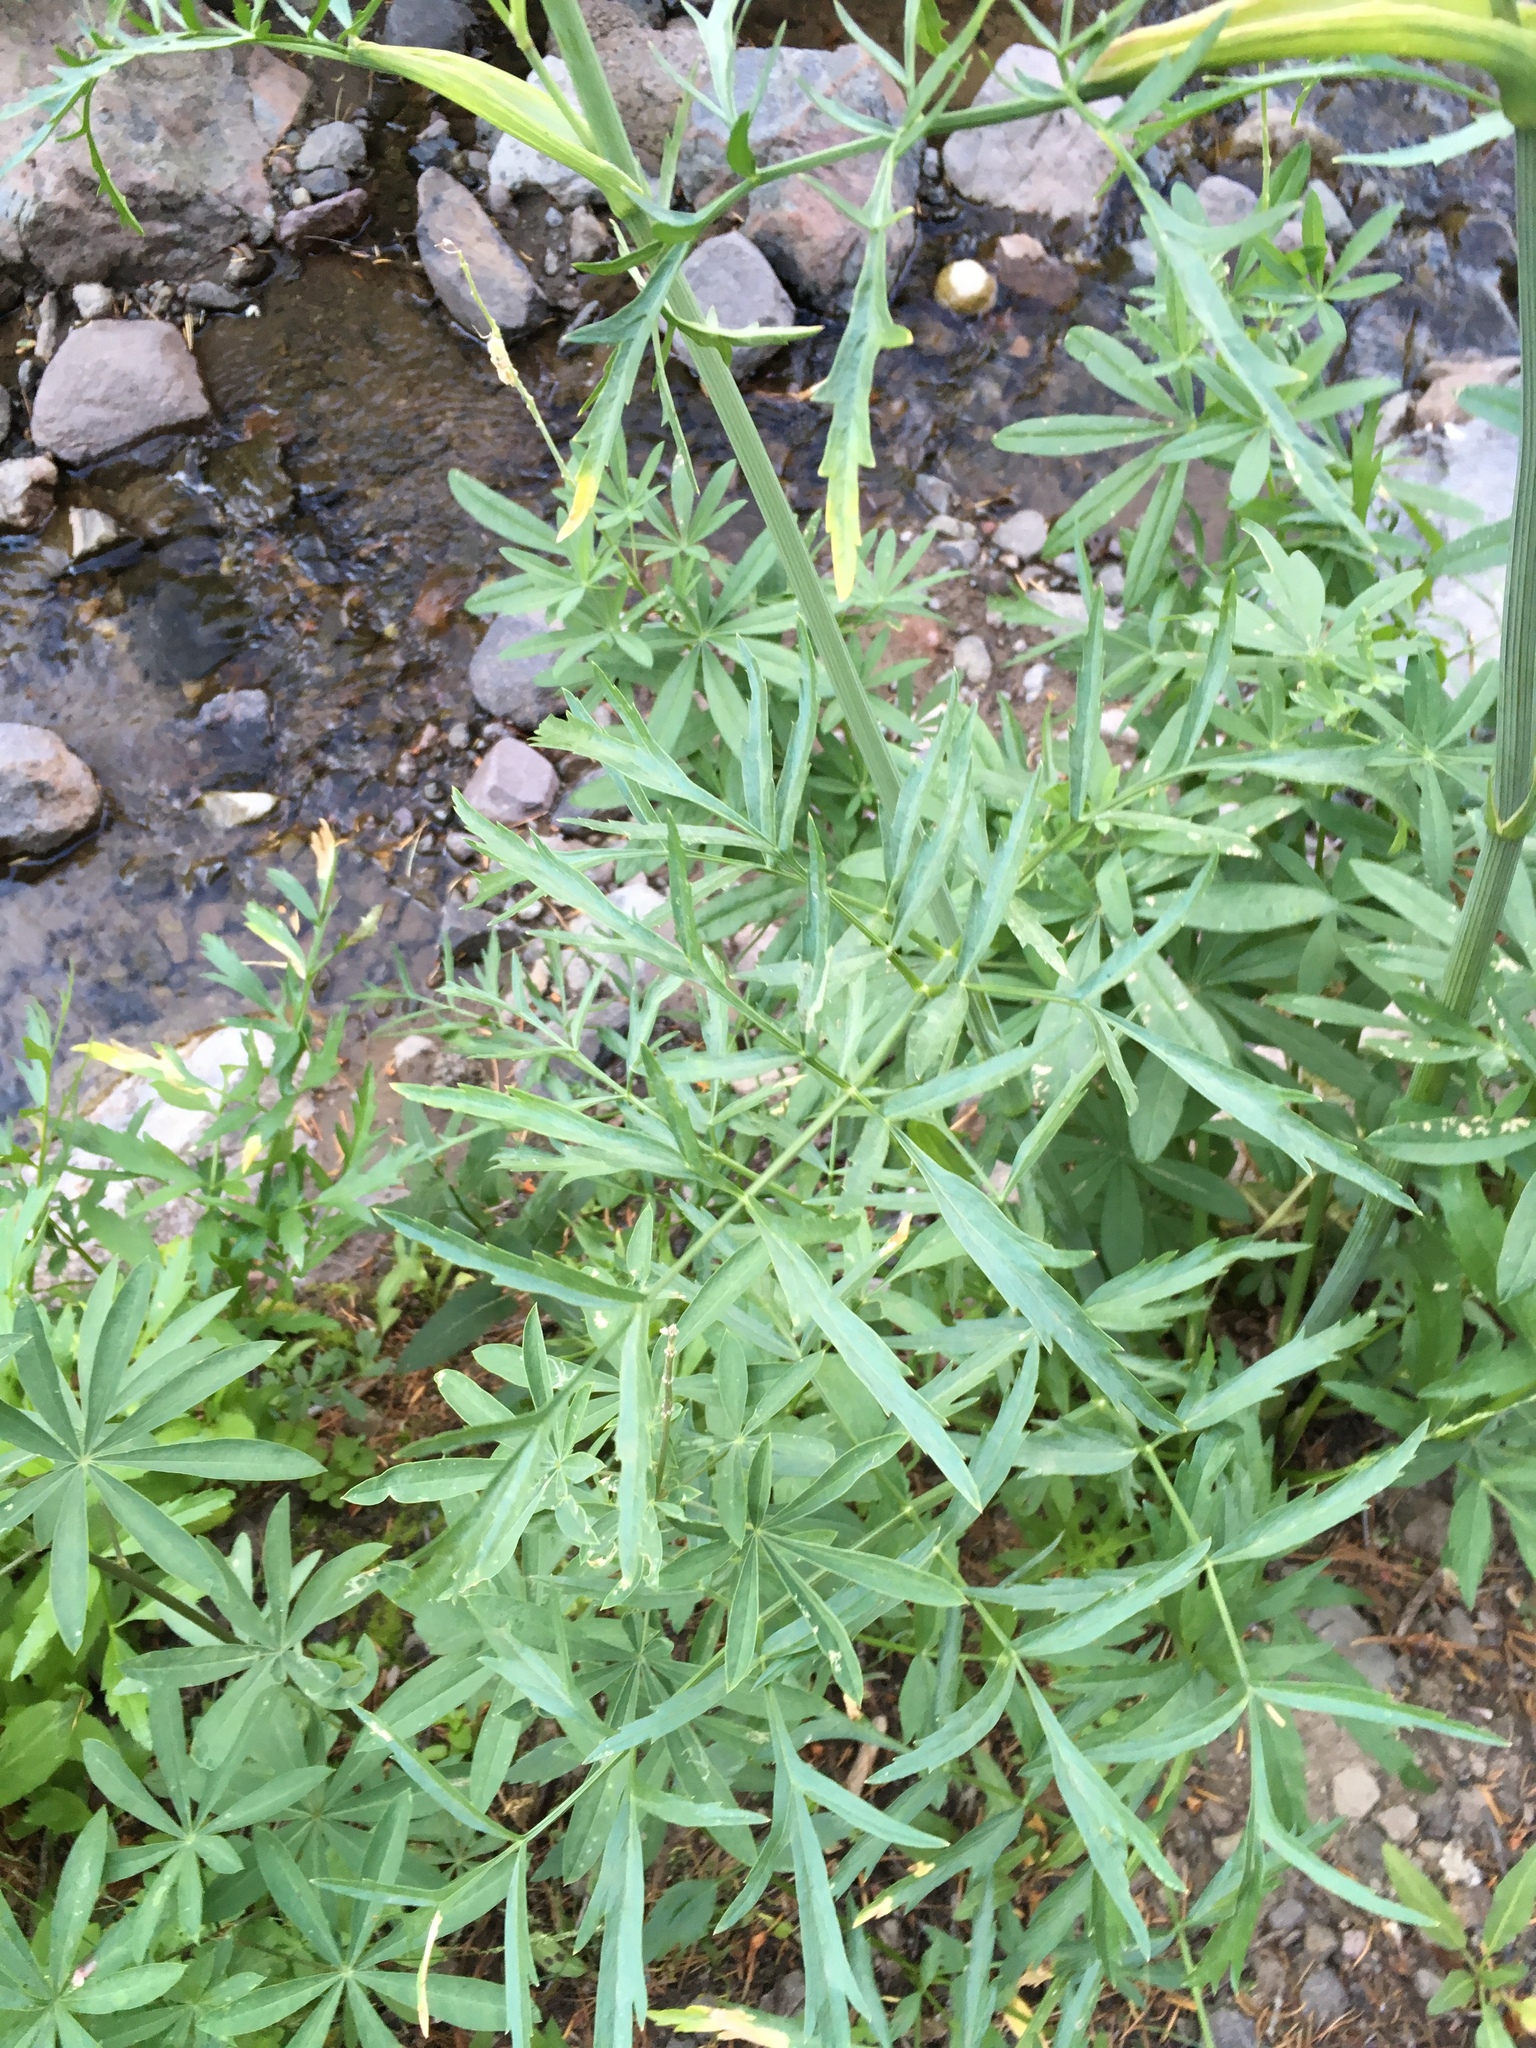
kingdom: Plantae
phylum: Tracheophyta
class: Magnoliopsida
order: Apiales
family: Apiaceae
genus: Angelica
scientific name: Angelica capitellata
